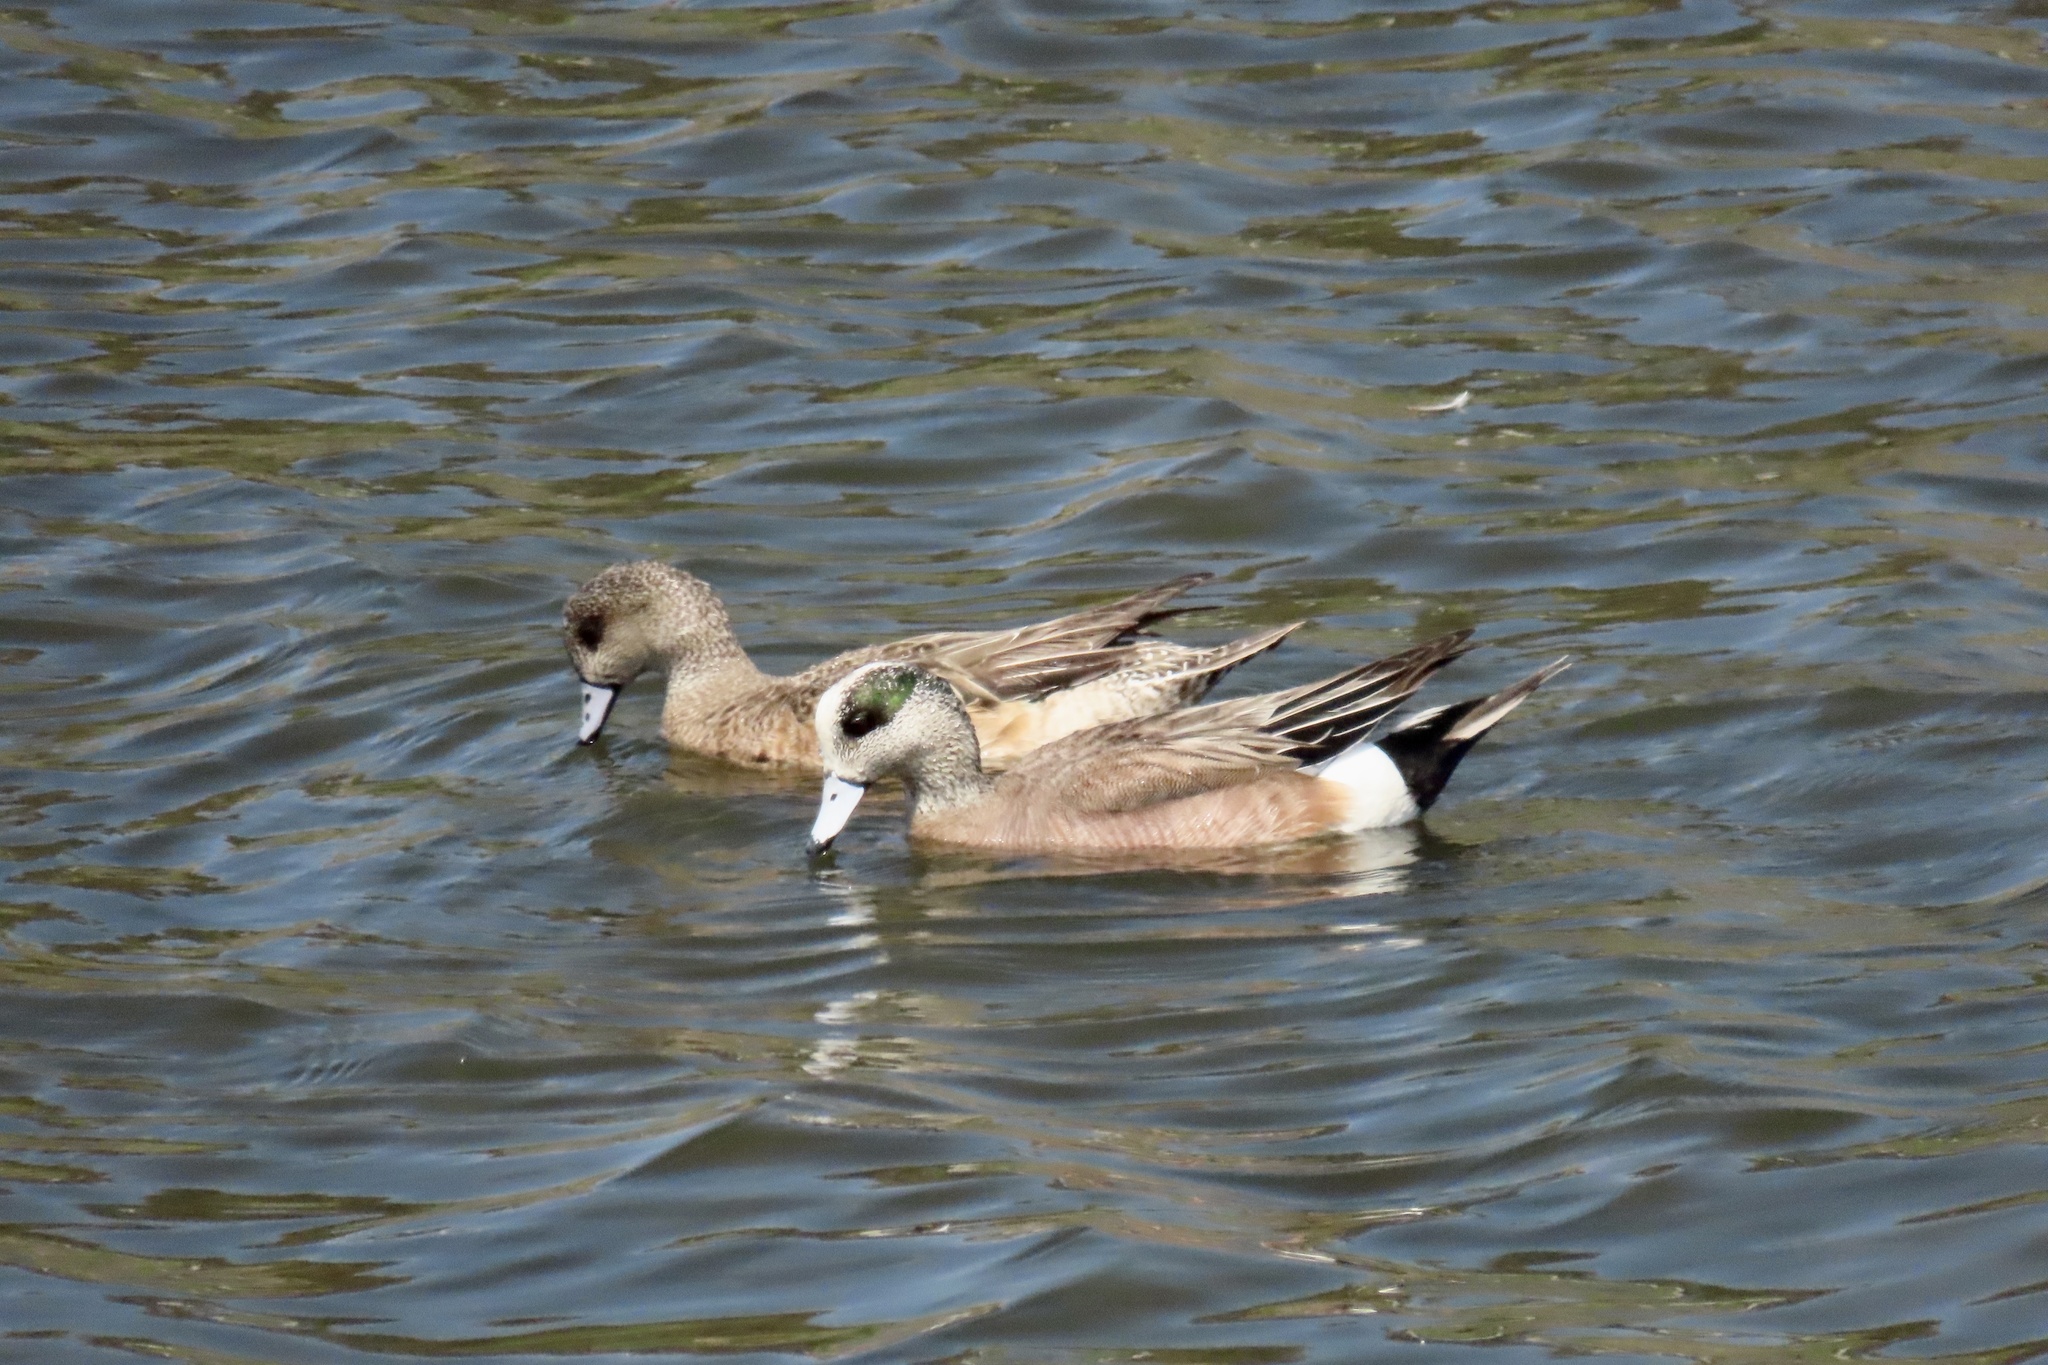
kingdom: Animalia
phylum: Chordata
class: Aves
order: Anseriformes
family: Anatidae
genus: Mareca
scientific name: Mareca americana
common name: American wigeon
